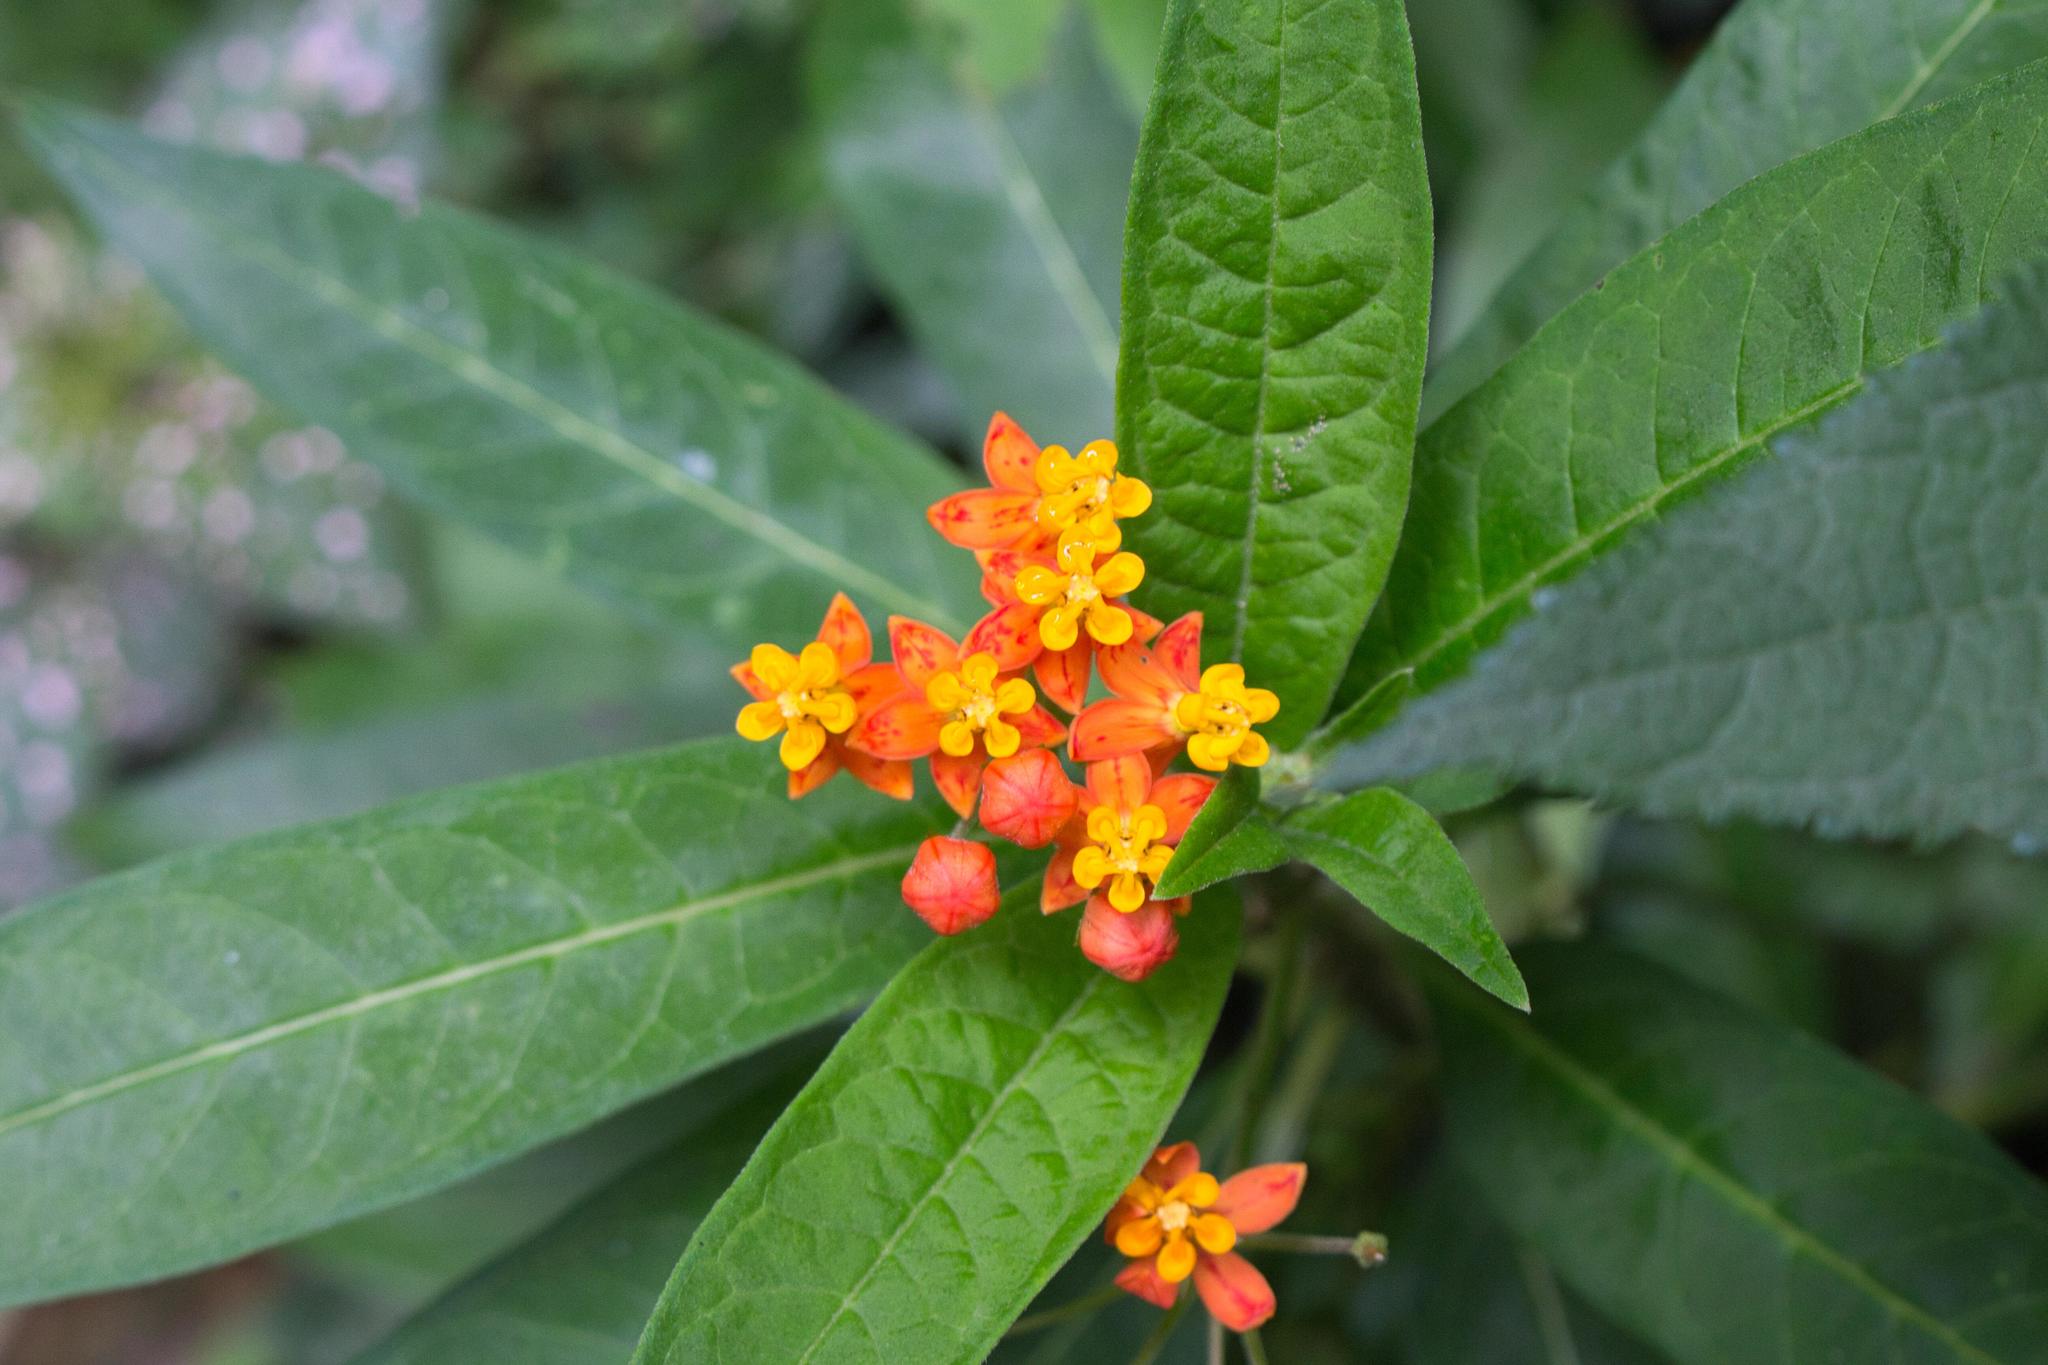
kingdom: Plantae
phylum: Tracheophyta
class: Magnoliopsida
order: Gentianales
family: Apocynaceae
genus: Asclepias
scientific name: Asclepias curassavica
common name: Bloodflower
